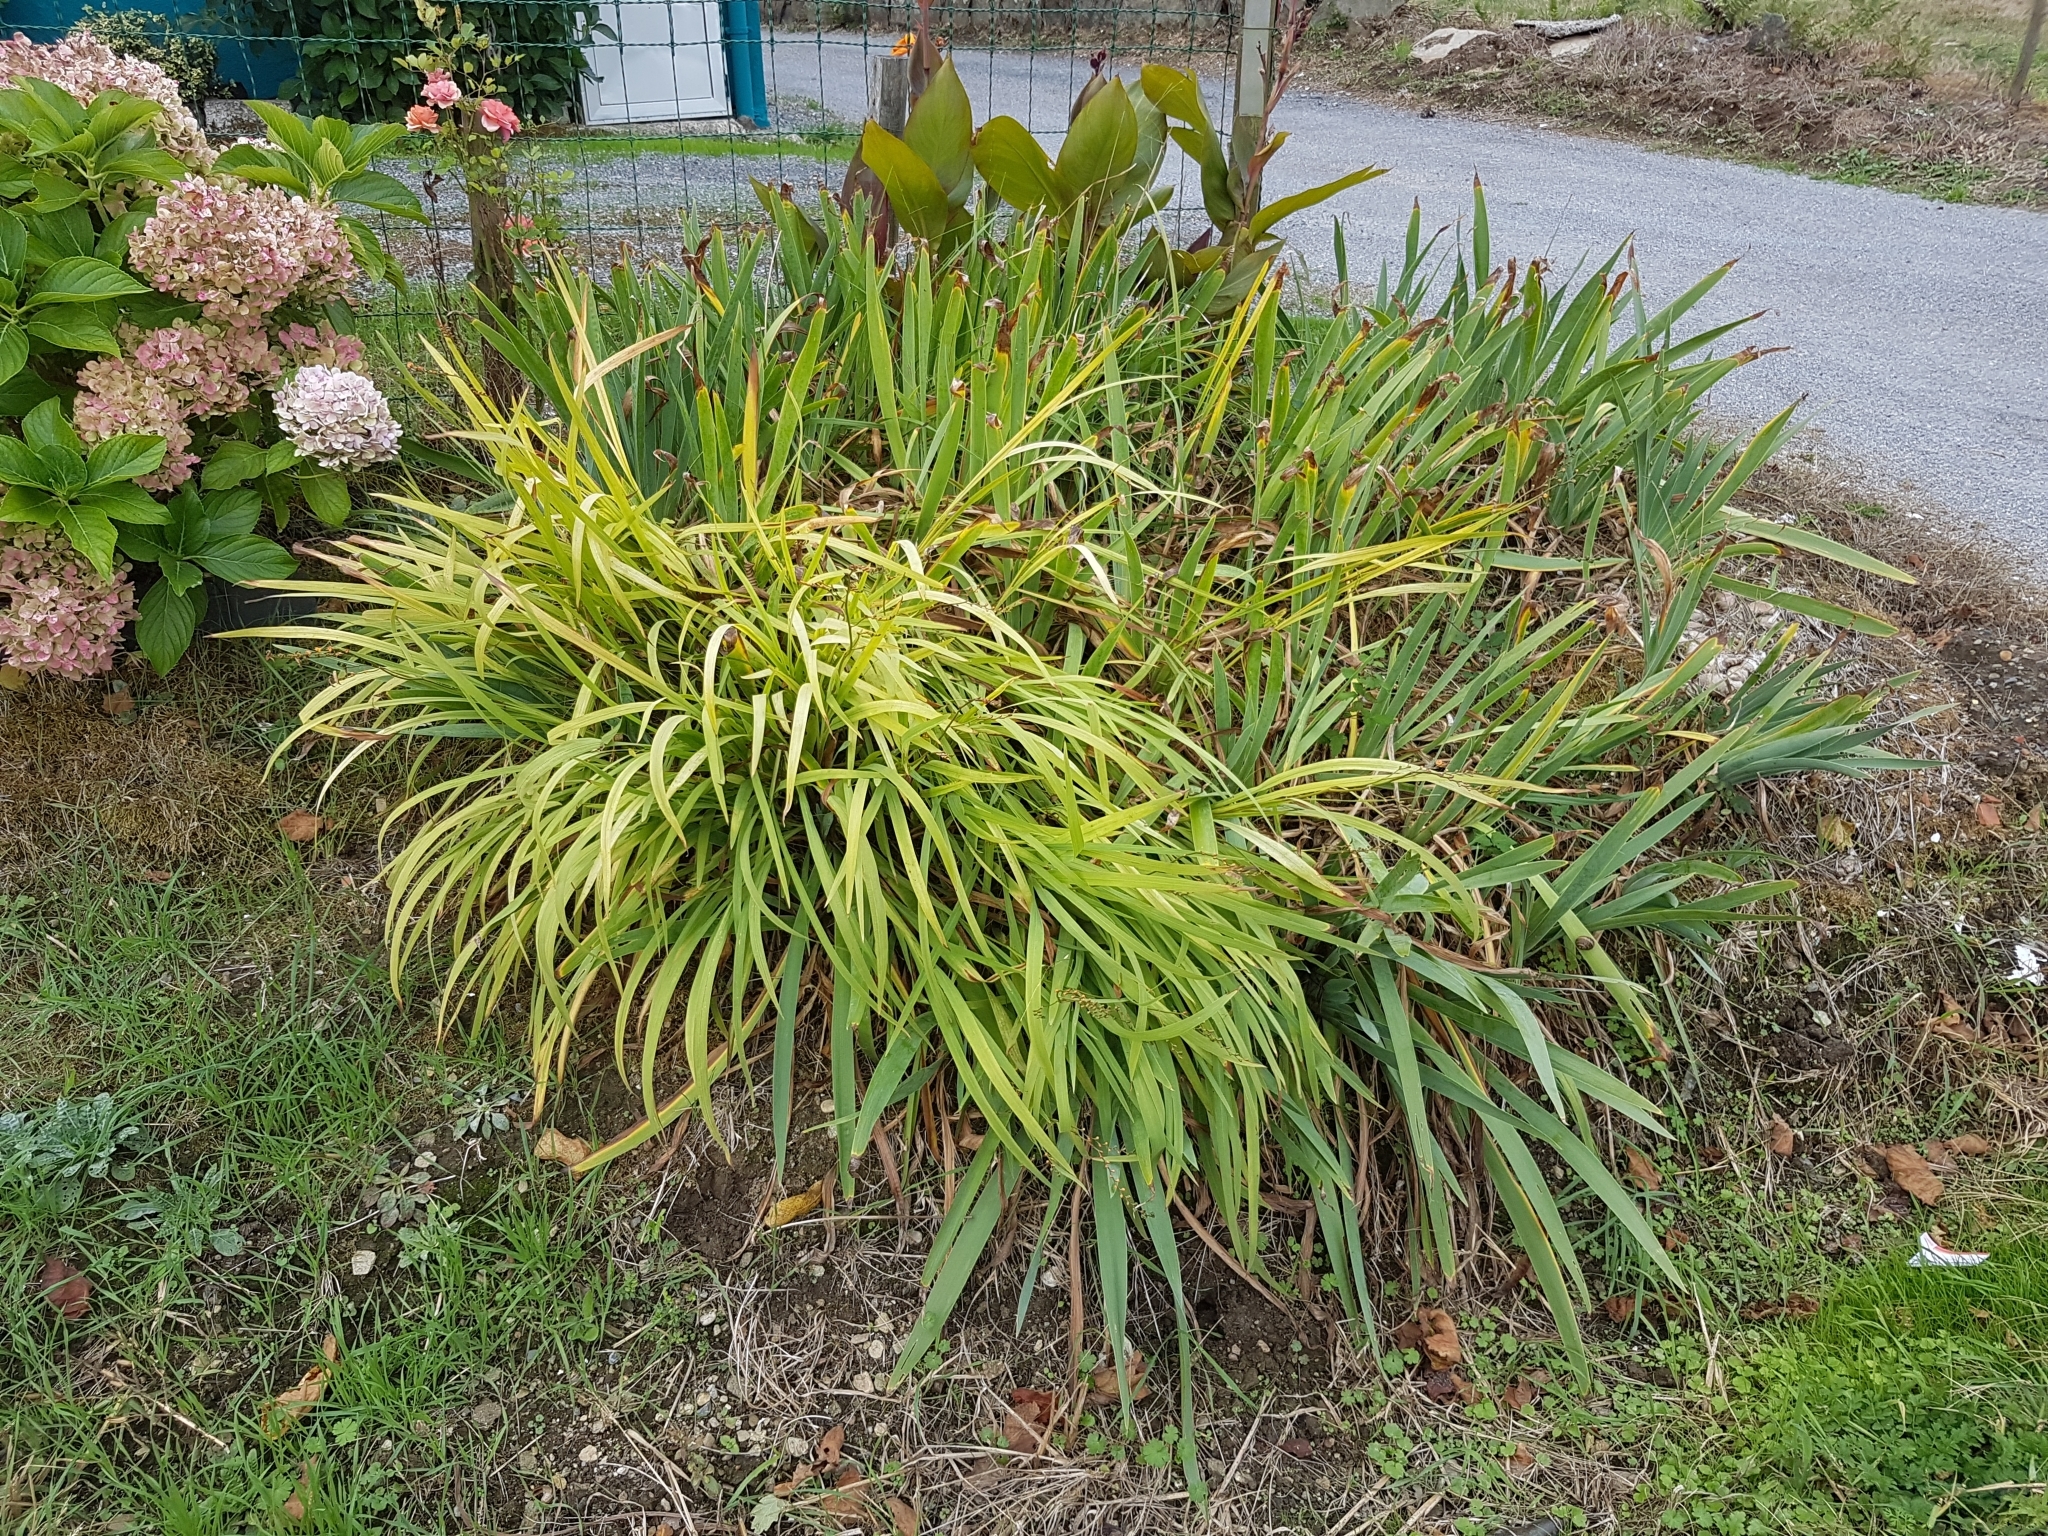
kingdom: Plantae
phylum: Tracheophyta
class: Liliopsida
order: Asparagales
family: Iridaceae
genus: Crocosmia
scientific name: Crocosmia crocosmiiflora
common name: Montbretia
